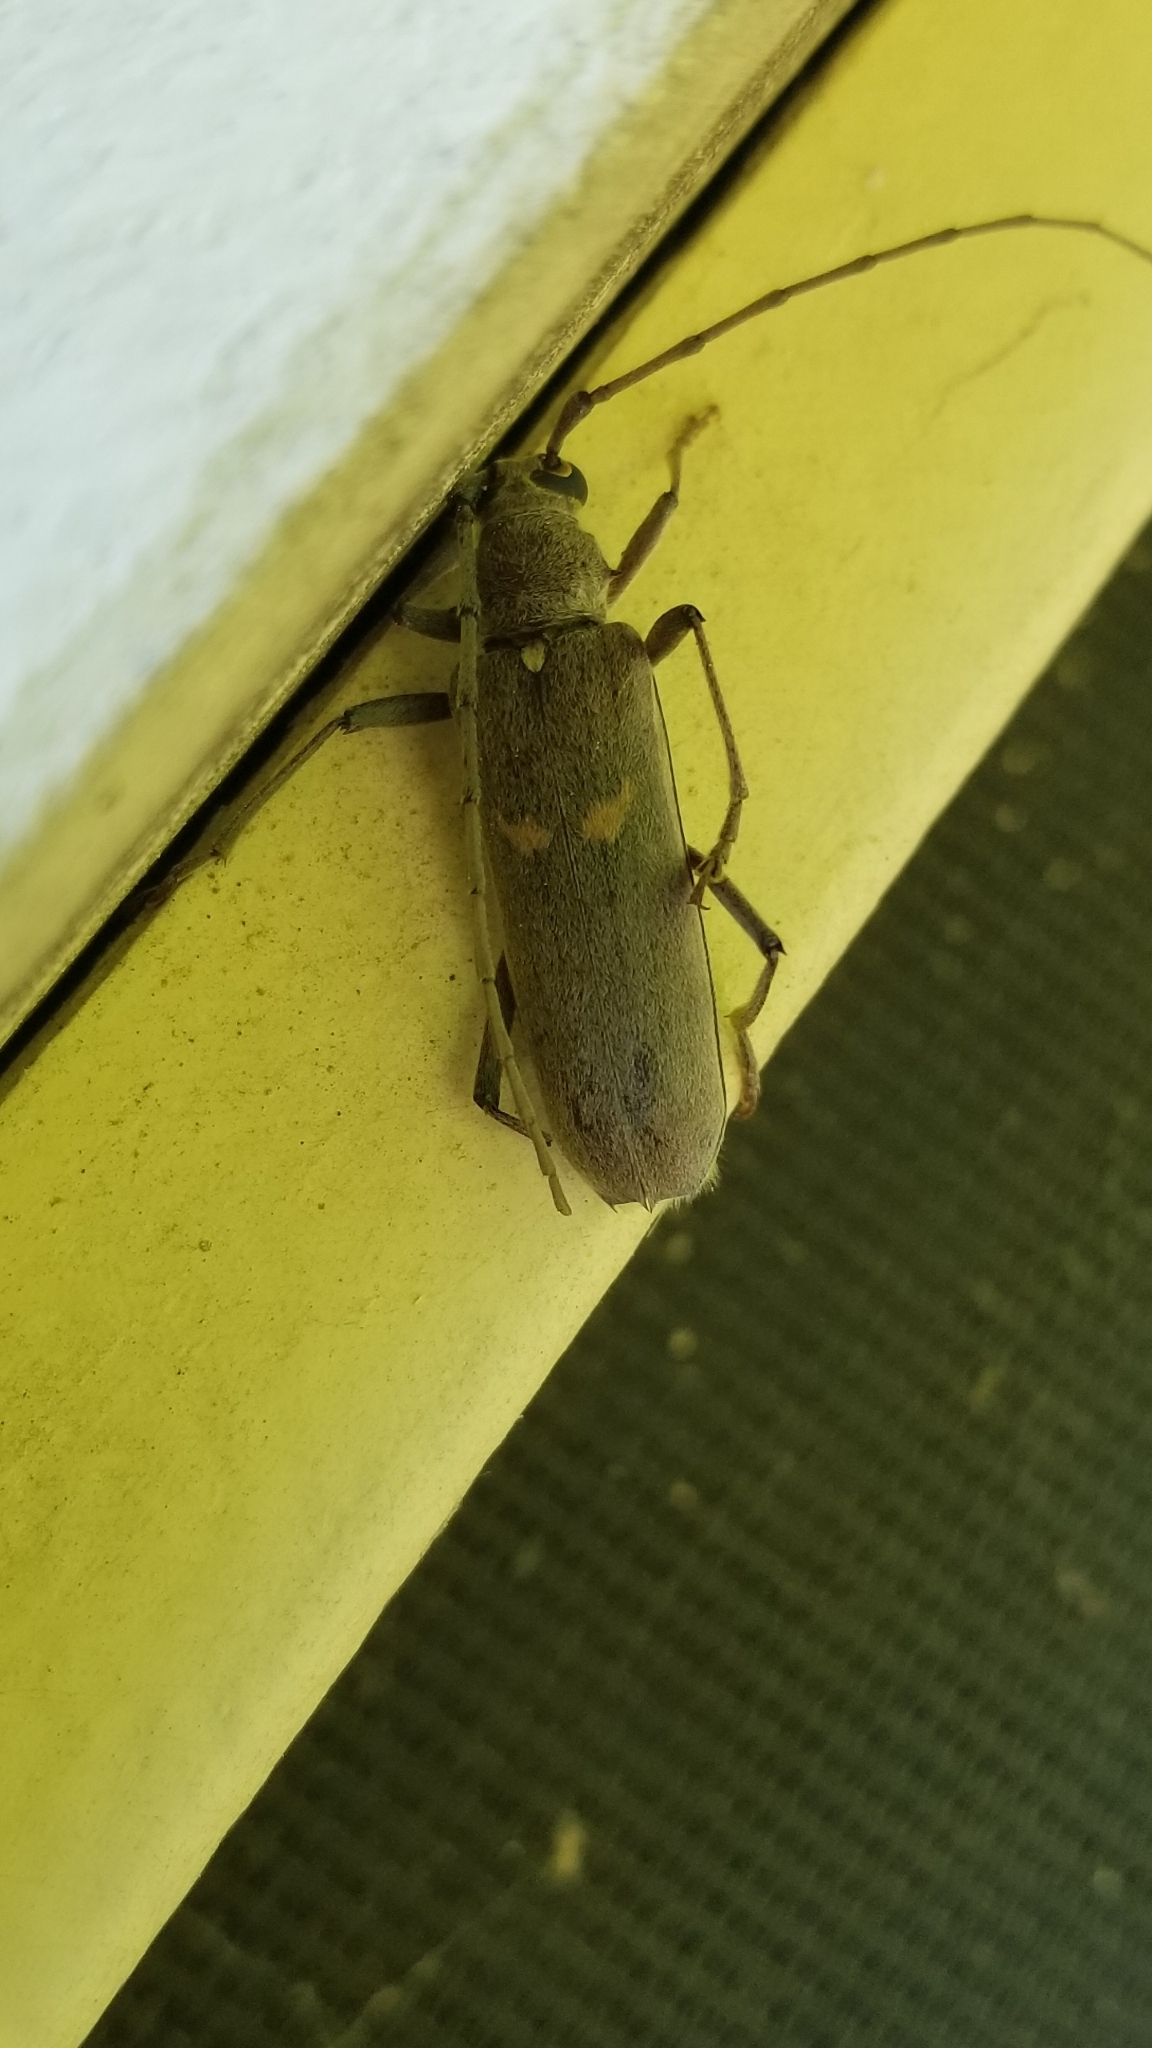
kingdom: Animalia
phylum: Arthropoda
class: Insecta
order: Coleoptera
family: Cerambycidae
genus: Knulliana
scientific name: Knulliana cincta
